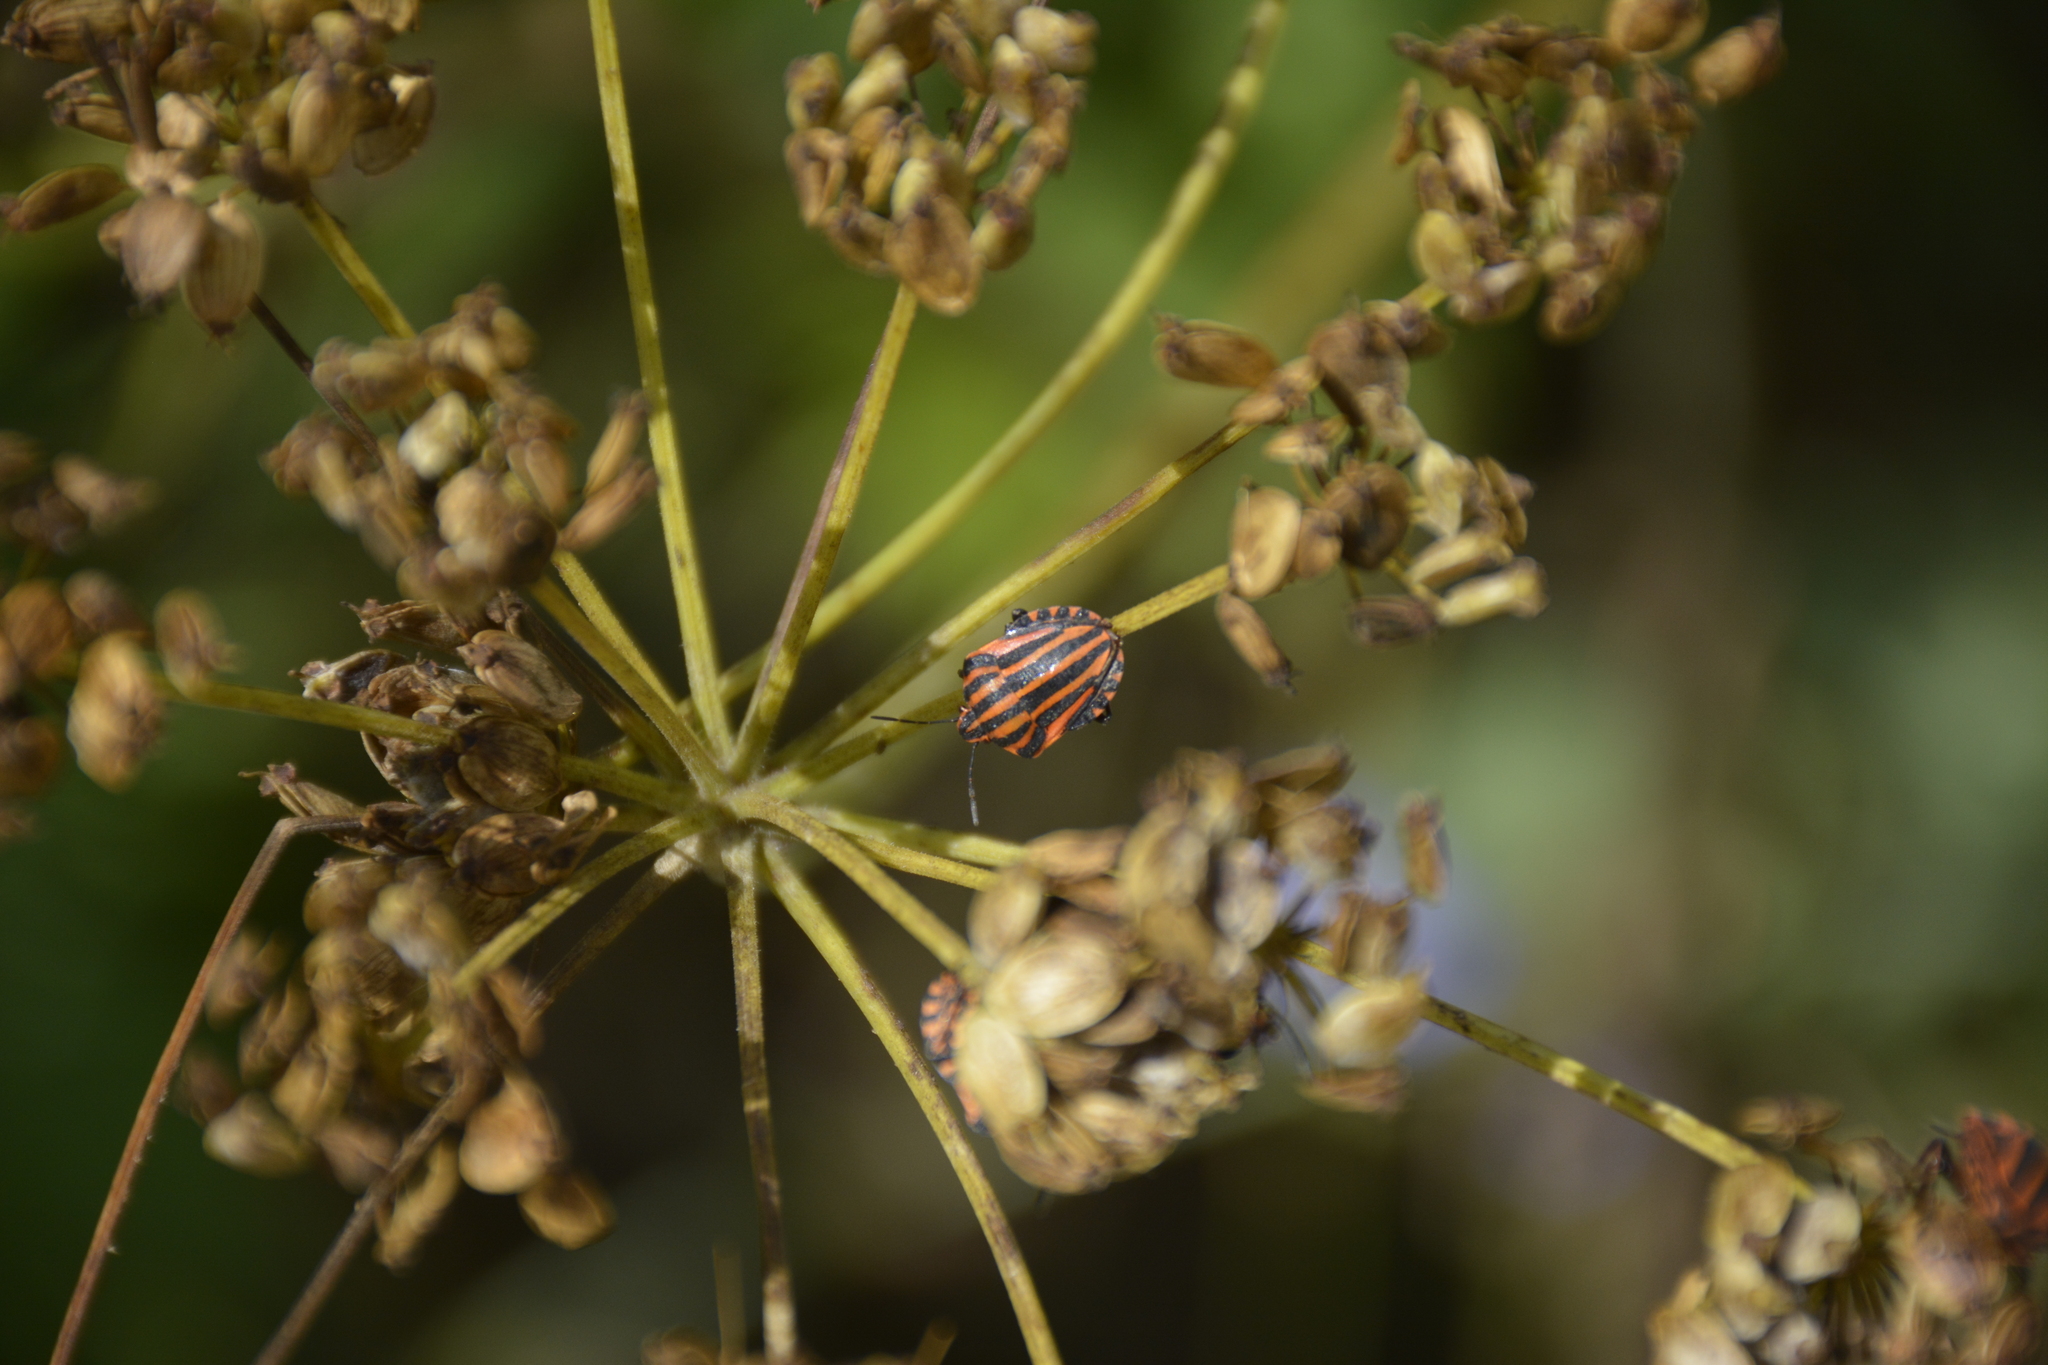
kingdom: Animalia
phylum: Arthropoda
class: Insecta
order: Hemiptera
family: Pentatomidae
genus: Graphosoma
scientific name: Graphosoma italicum
